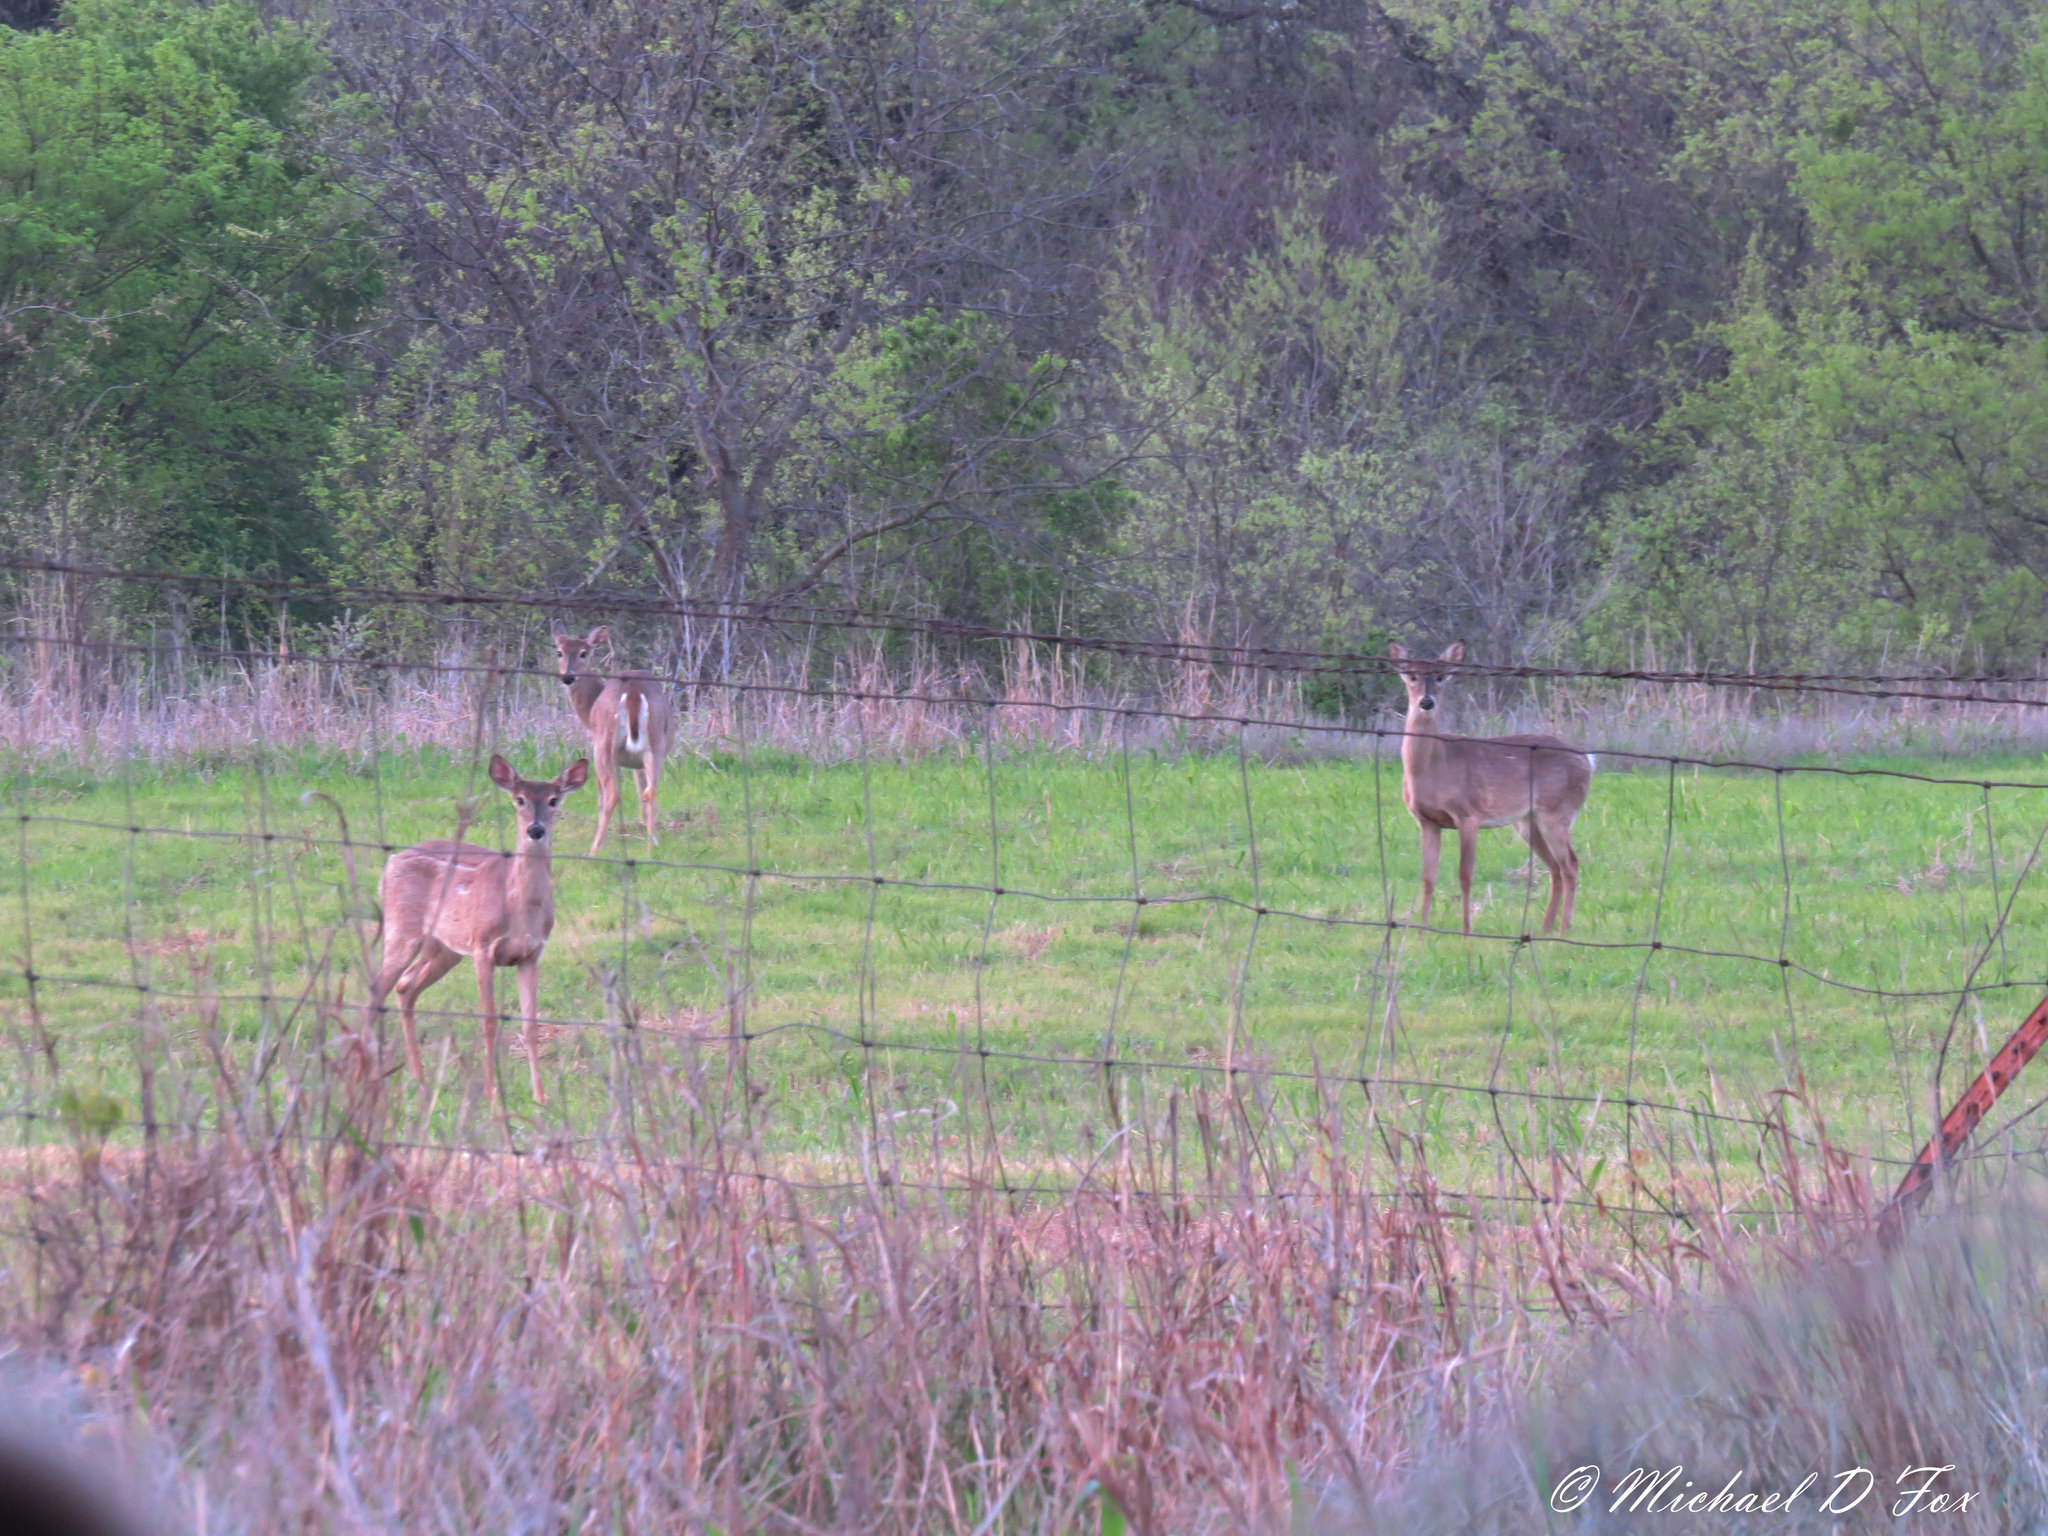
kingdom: Animalia
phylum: Chordata
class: Mammalia
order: Artiodactyla
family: Cervidae
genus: Odocoileus
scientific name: Odocoileus virginianus
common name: White-tailed deer
